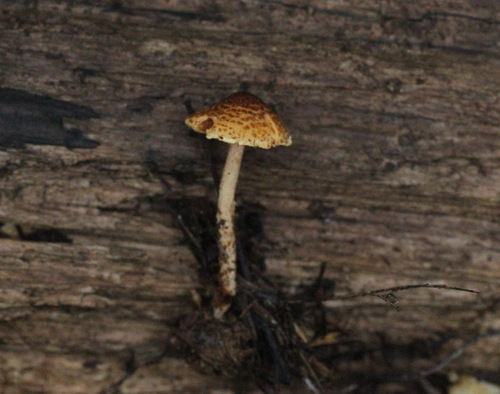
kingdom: Fungi
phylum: Basidiomycota
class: Agaricomycetes
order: Agaricales
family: Agaricaceae
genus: Lepiota
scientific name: Lepiota boudieri
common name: Girdled dapperling
